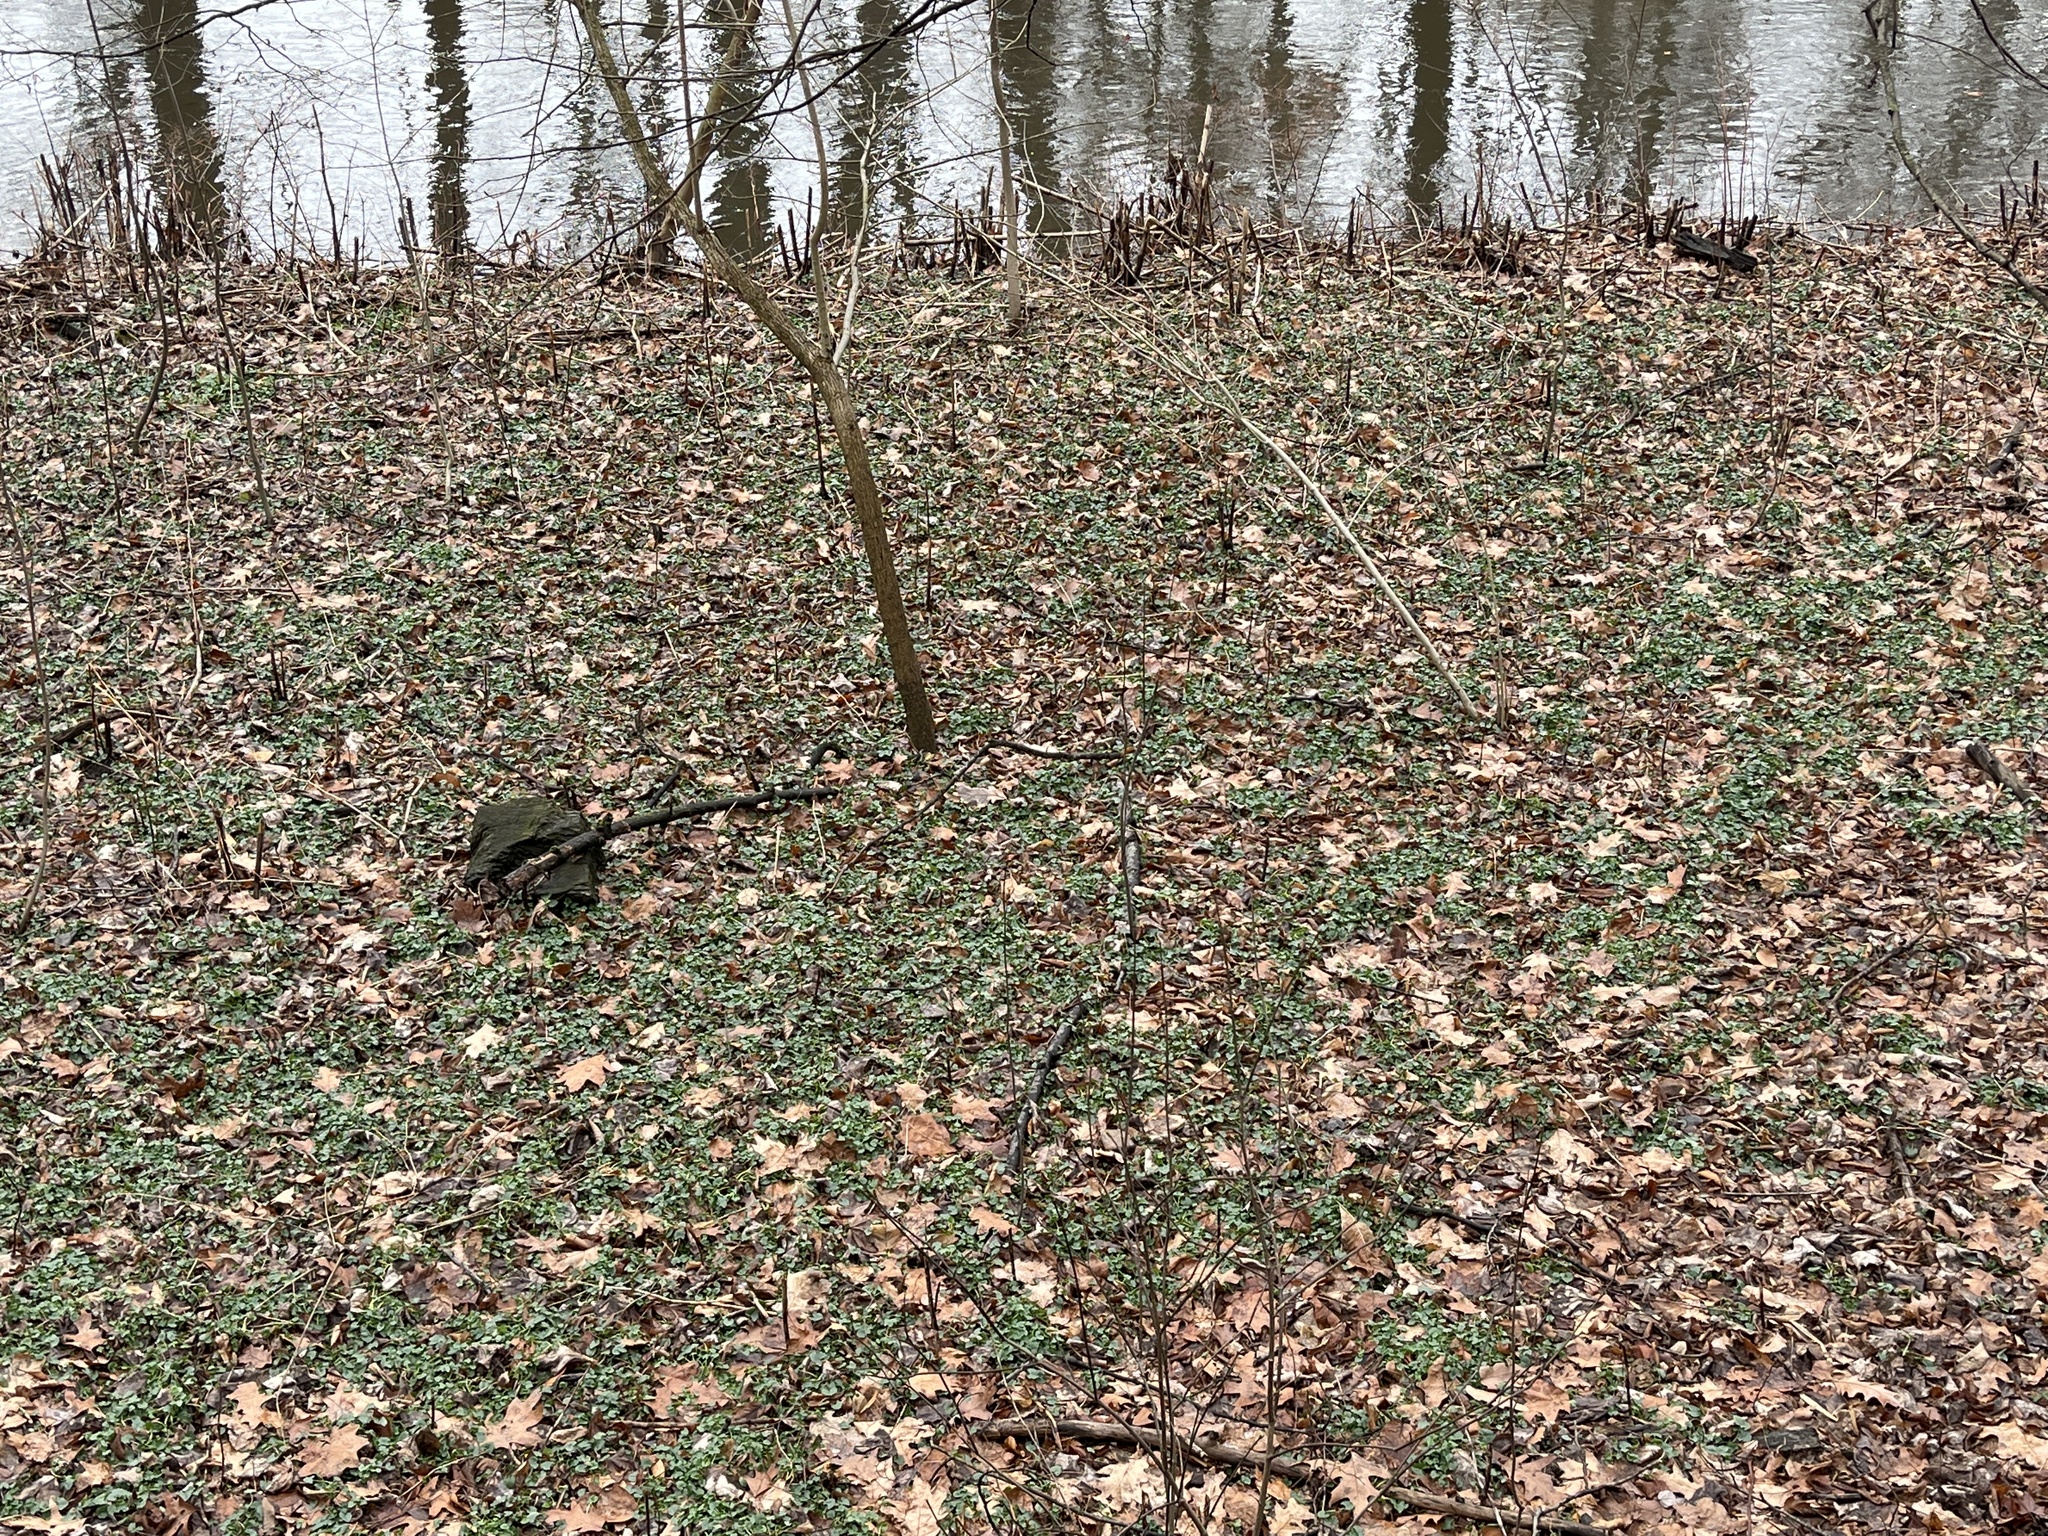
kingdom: Plantae
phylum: Tracheophyta
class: Magnoliopsida
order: Ranunculales
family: Ranunculaceae
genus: Ficaria
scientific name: Ficaria verna
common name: Lesser celandine
